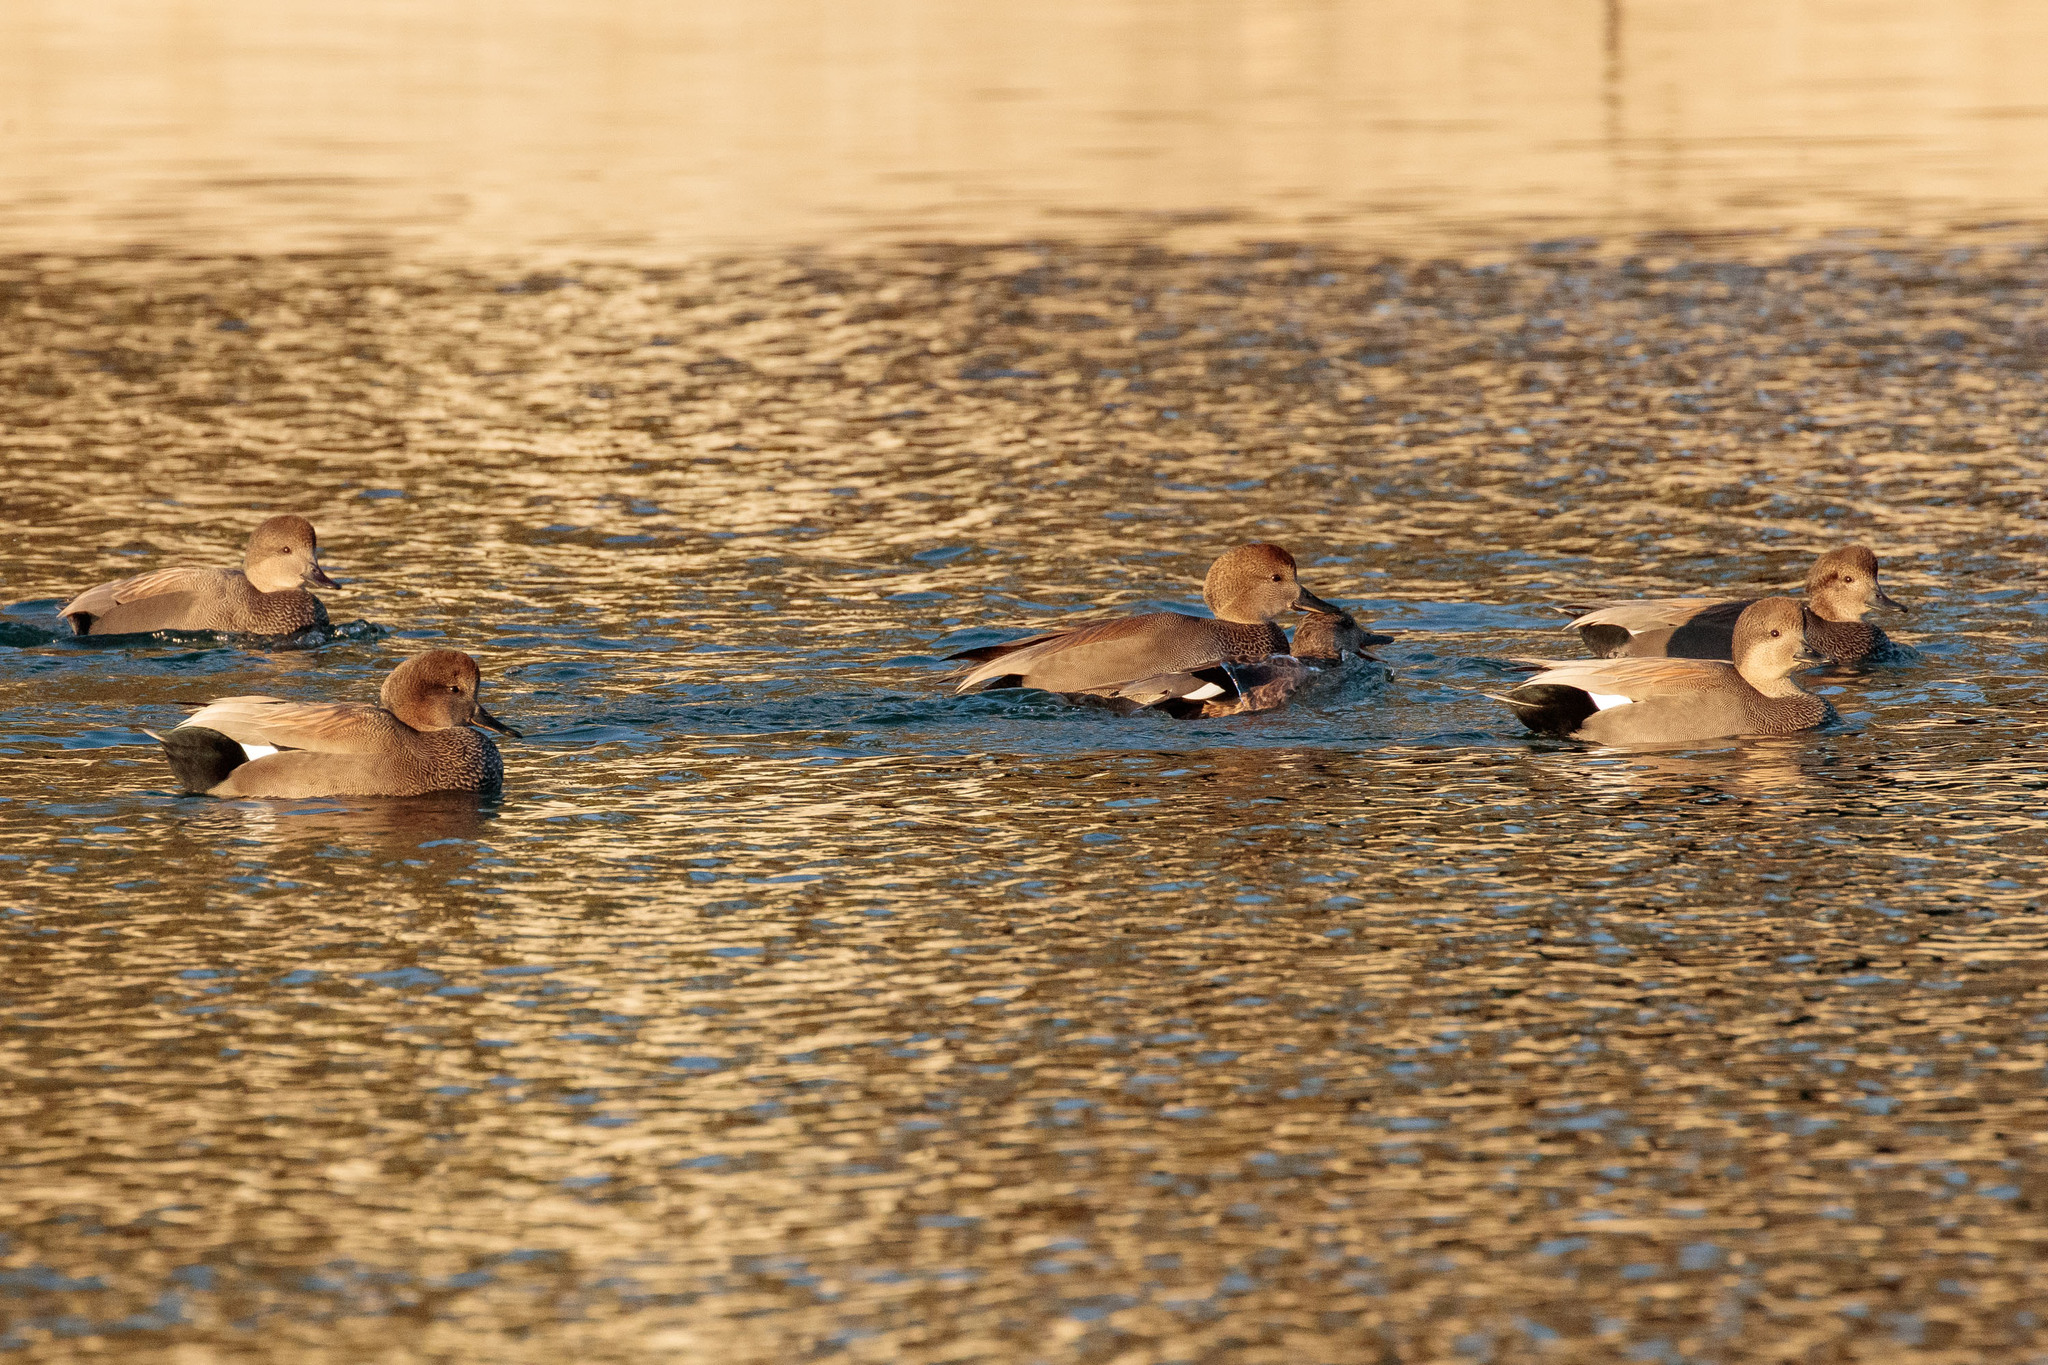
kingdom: Animalia
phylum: Chordata
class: Aves
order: Anseriformes
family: Anatidae
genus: Mareca
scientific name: Mareca strepera
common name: Gadwall
